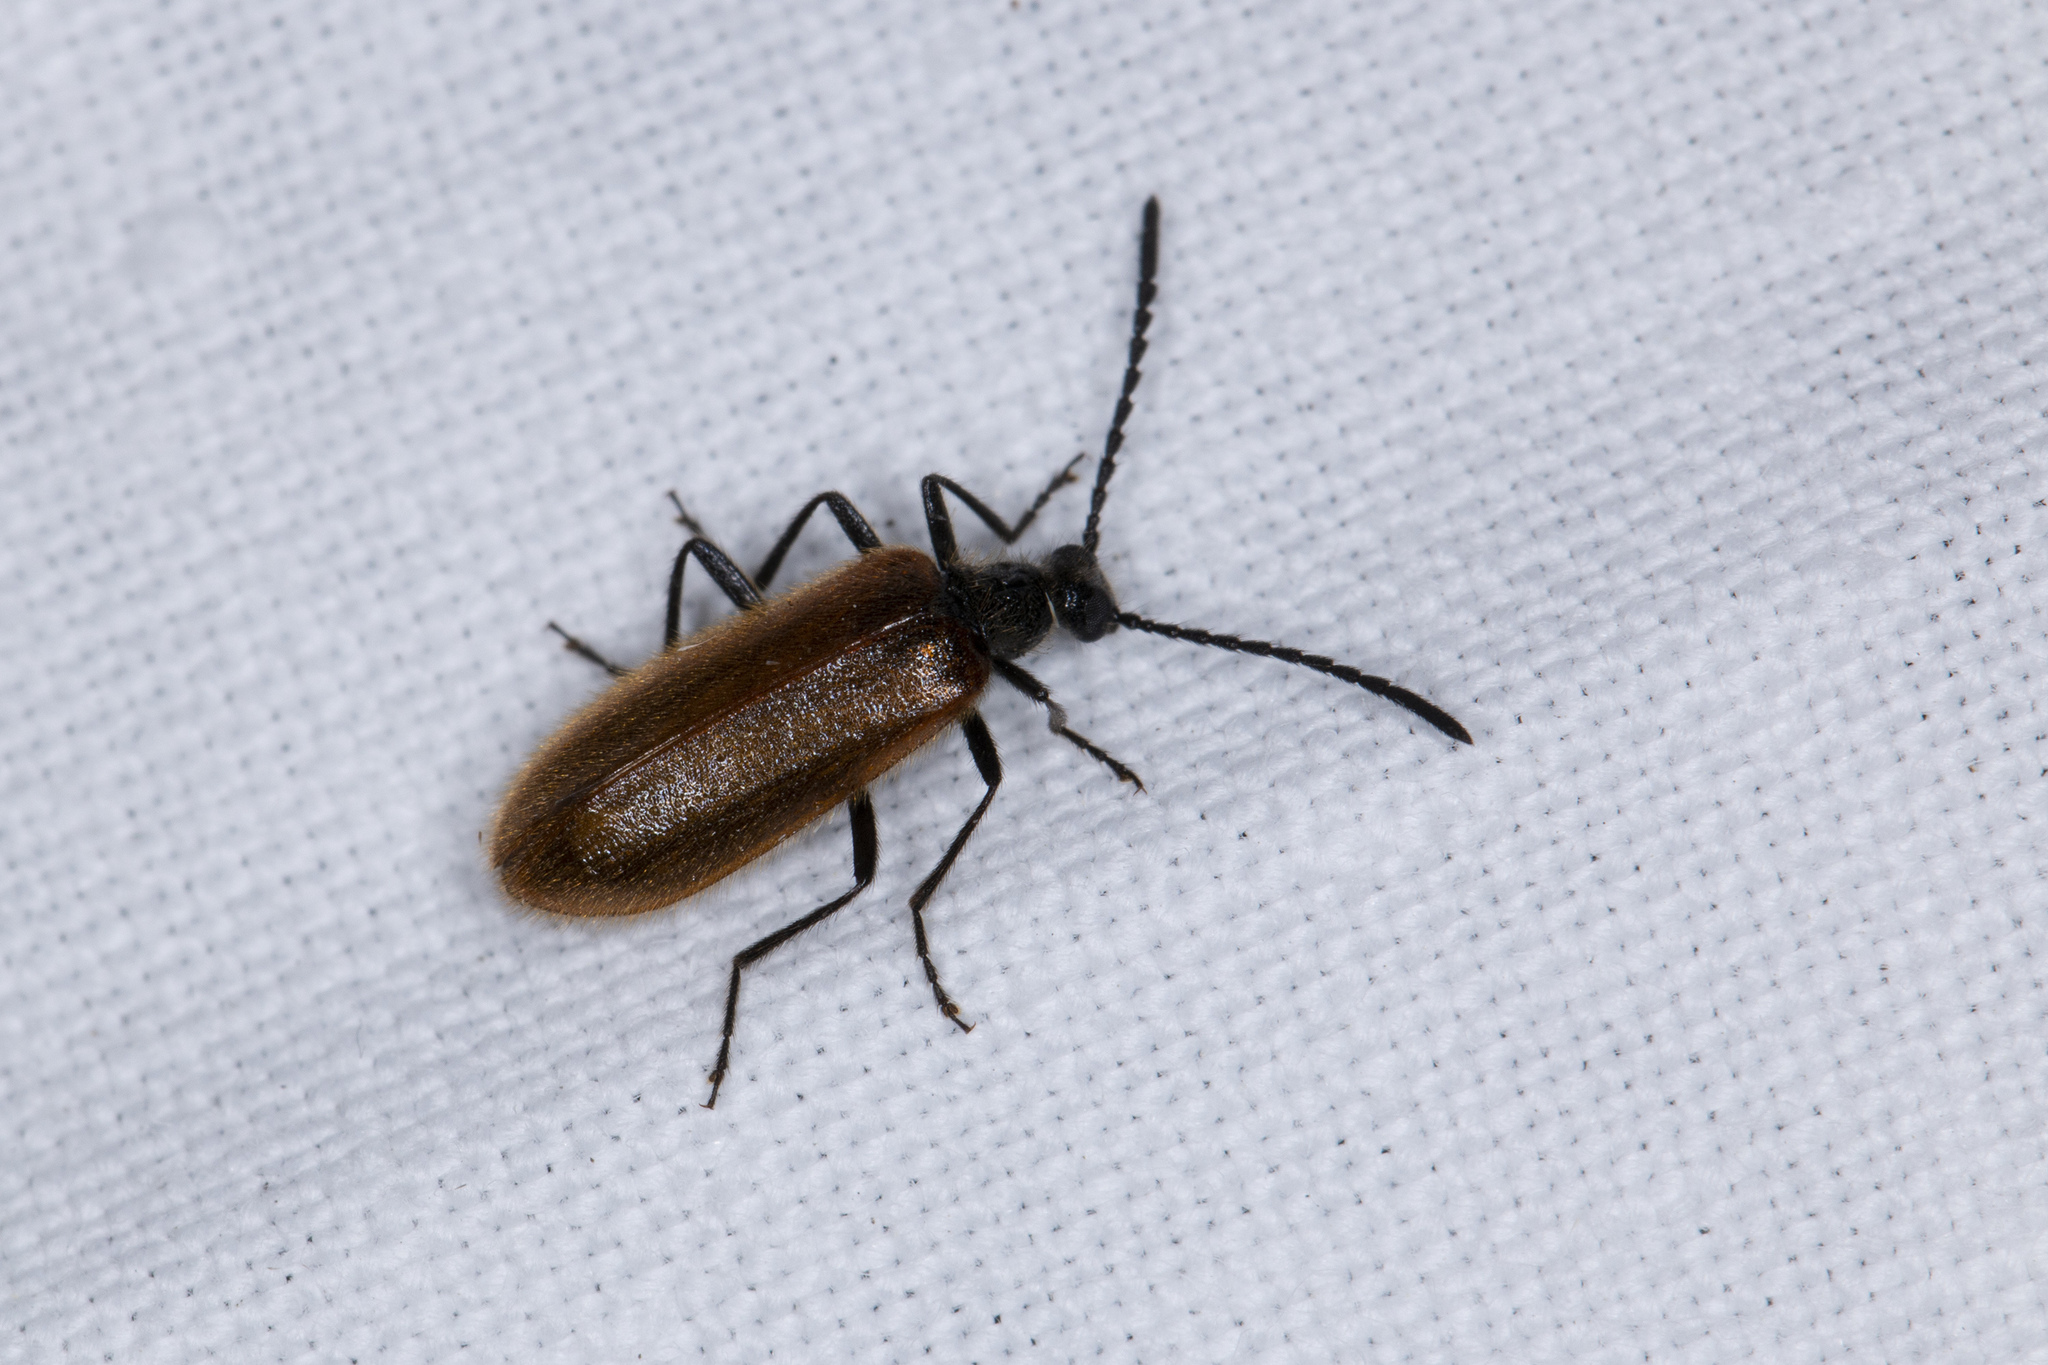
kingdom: Animalia
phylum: Arthropoda
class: Insecta
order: Coleoptera
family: Tenebrionidae
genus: Lagria
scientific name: Lagria hirta
